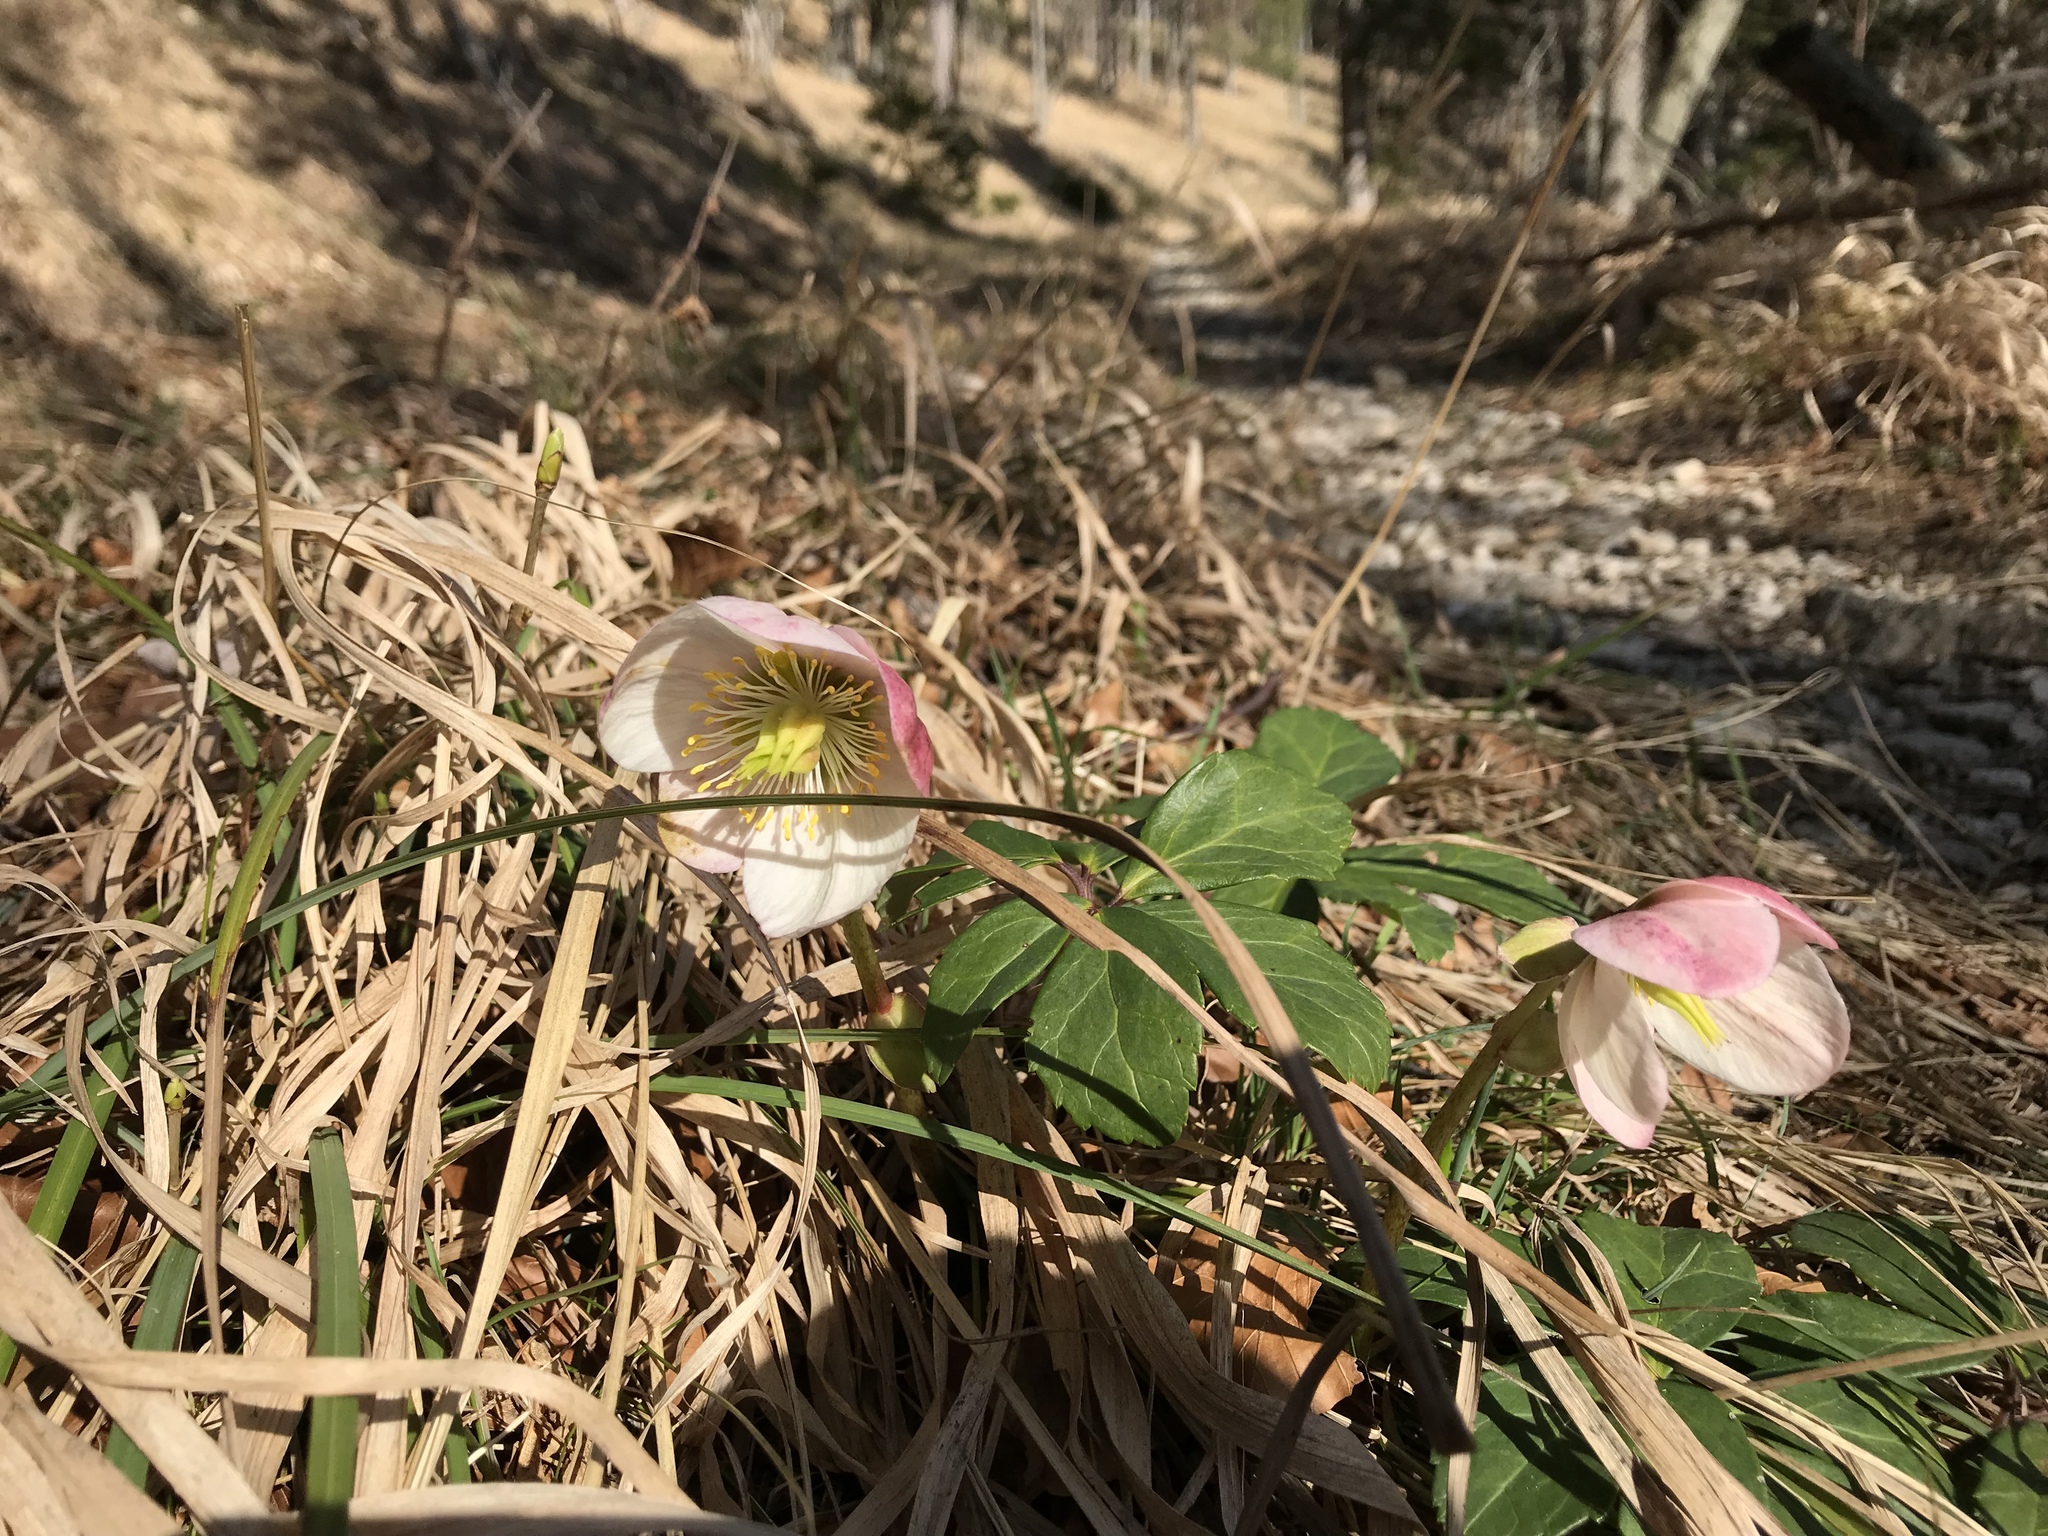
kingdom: Plantae
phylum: Tracheophyta
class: Magnoliopsida
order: Ranunculales
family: Ranunculaceae
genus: Helleborus
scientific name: Helleborus niger
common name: Black hellebore
